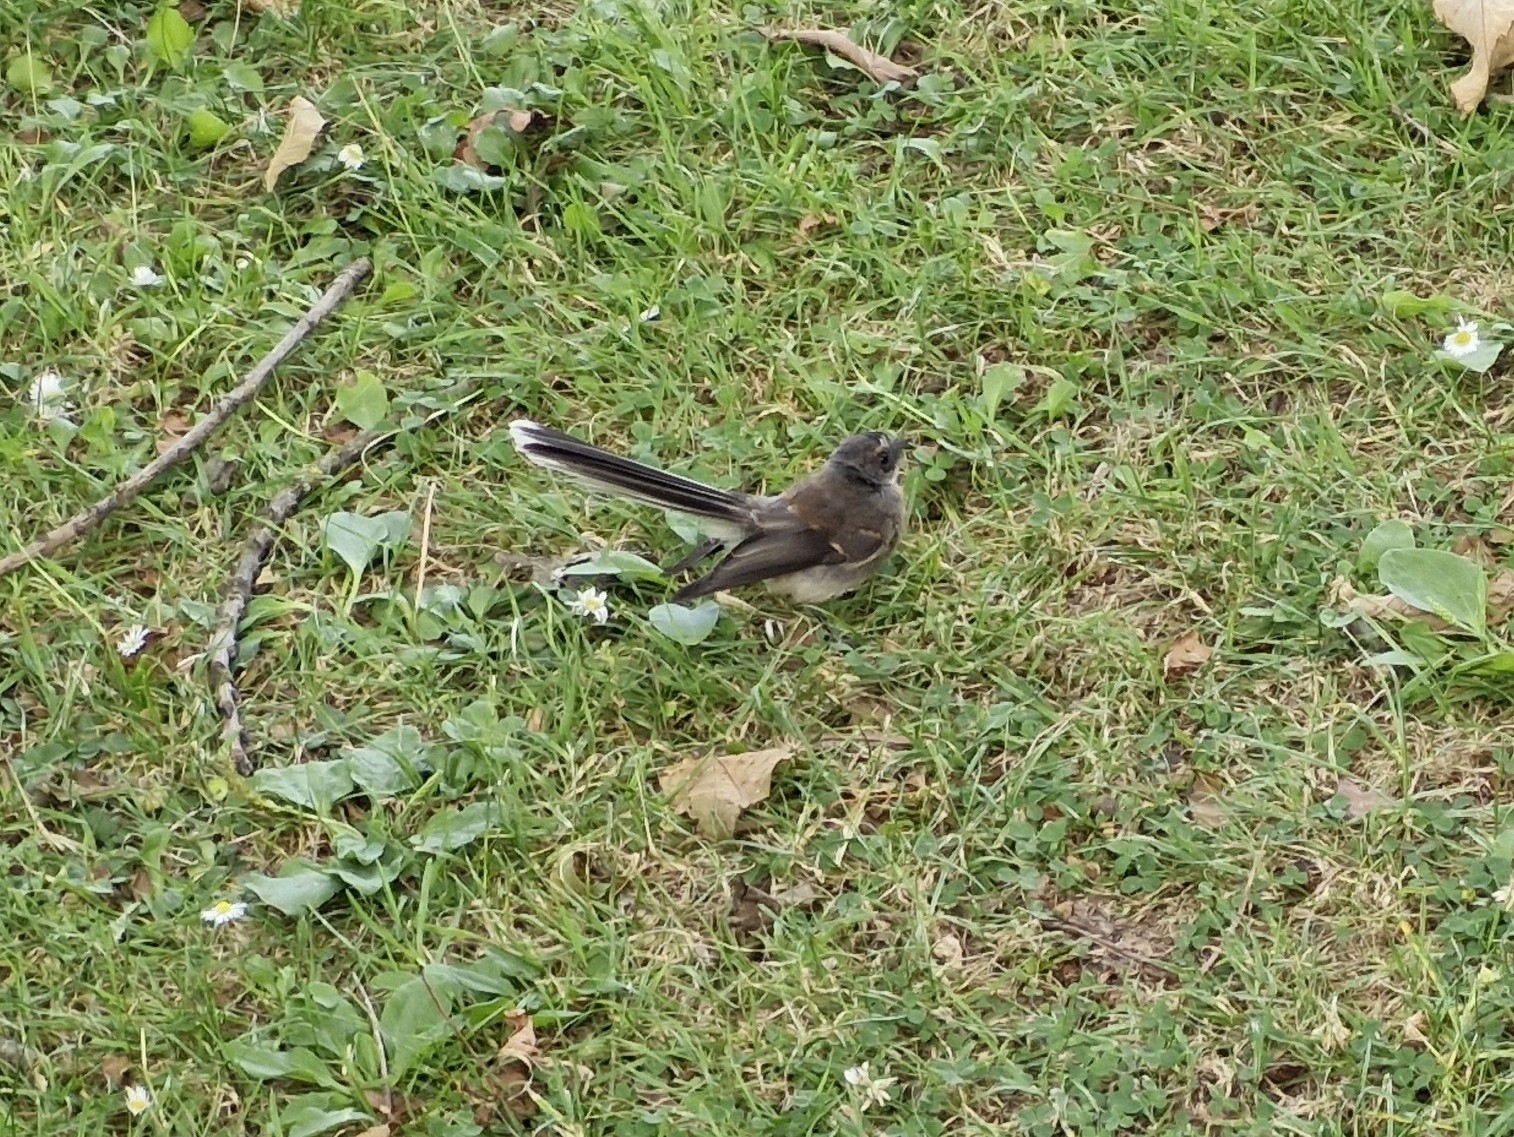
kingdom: Animalia
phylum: Chordata
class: Aves
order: Passeriformes
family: Rhipiduridae
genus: Rhipidura
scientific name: Rhipidura fuliginosa
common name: New zealand fantail
